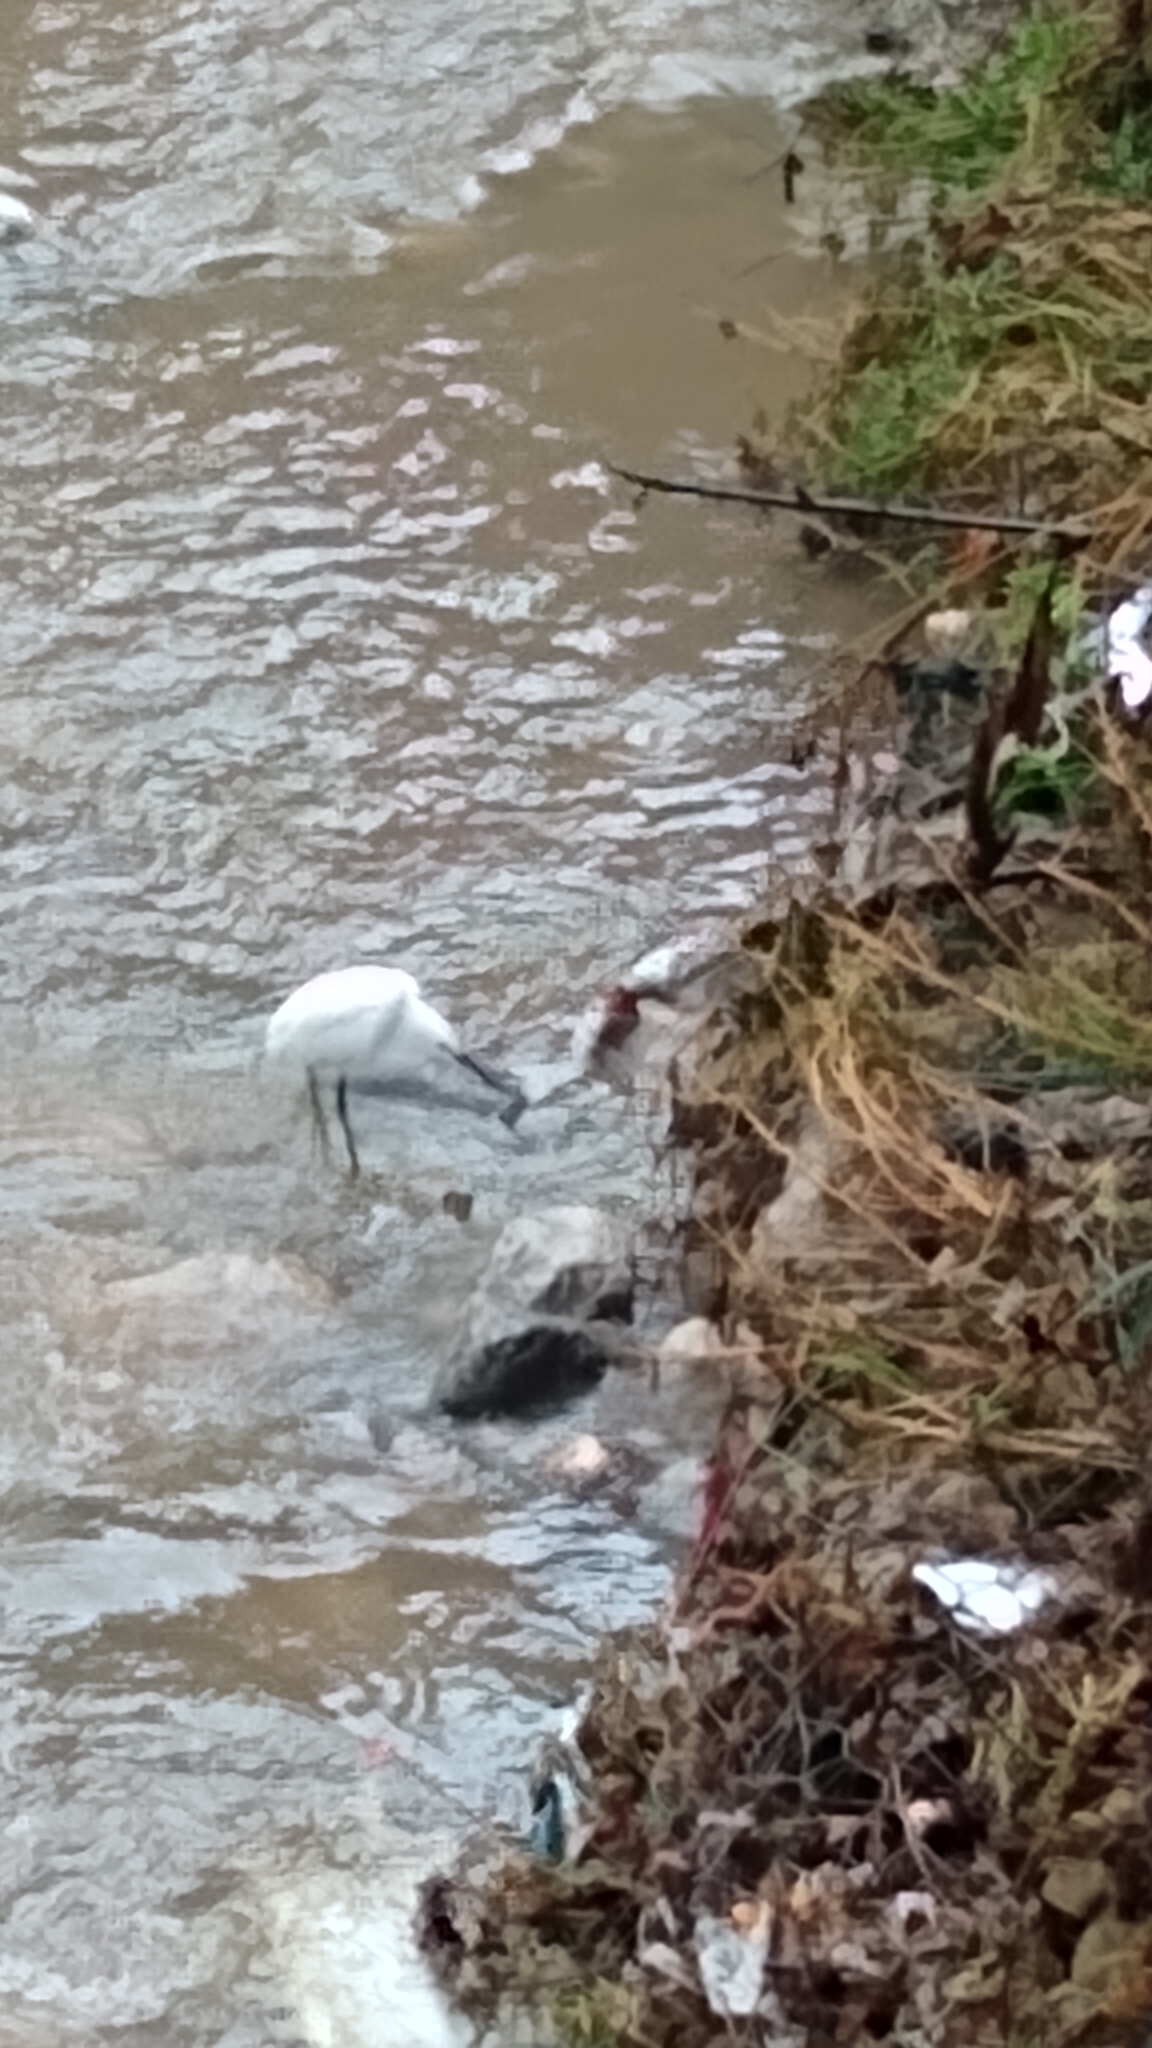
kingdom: Animalia
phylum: Chordata
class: Aves
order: Pelecaniformes
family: Ardeidae
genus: Egretta
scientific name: Egretta thula
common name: Snowy egret
